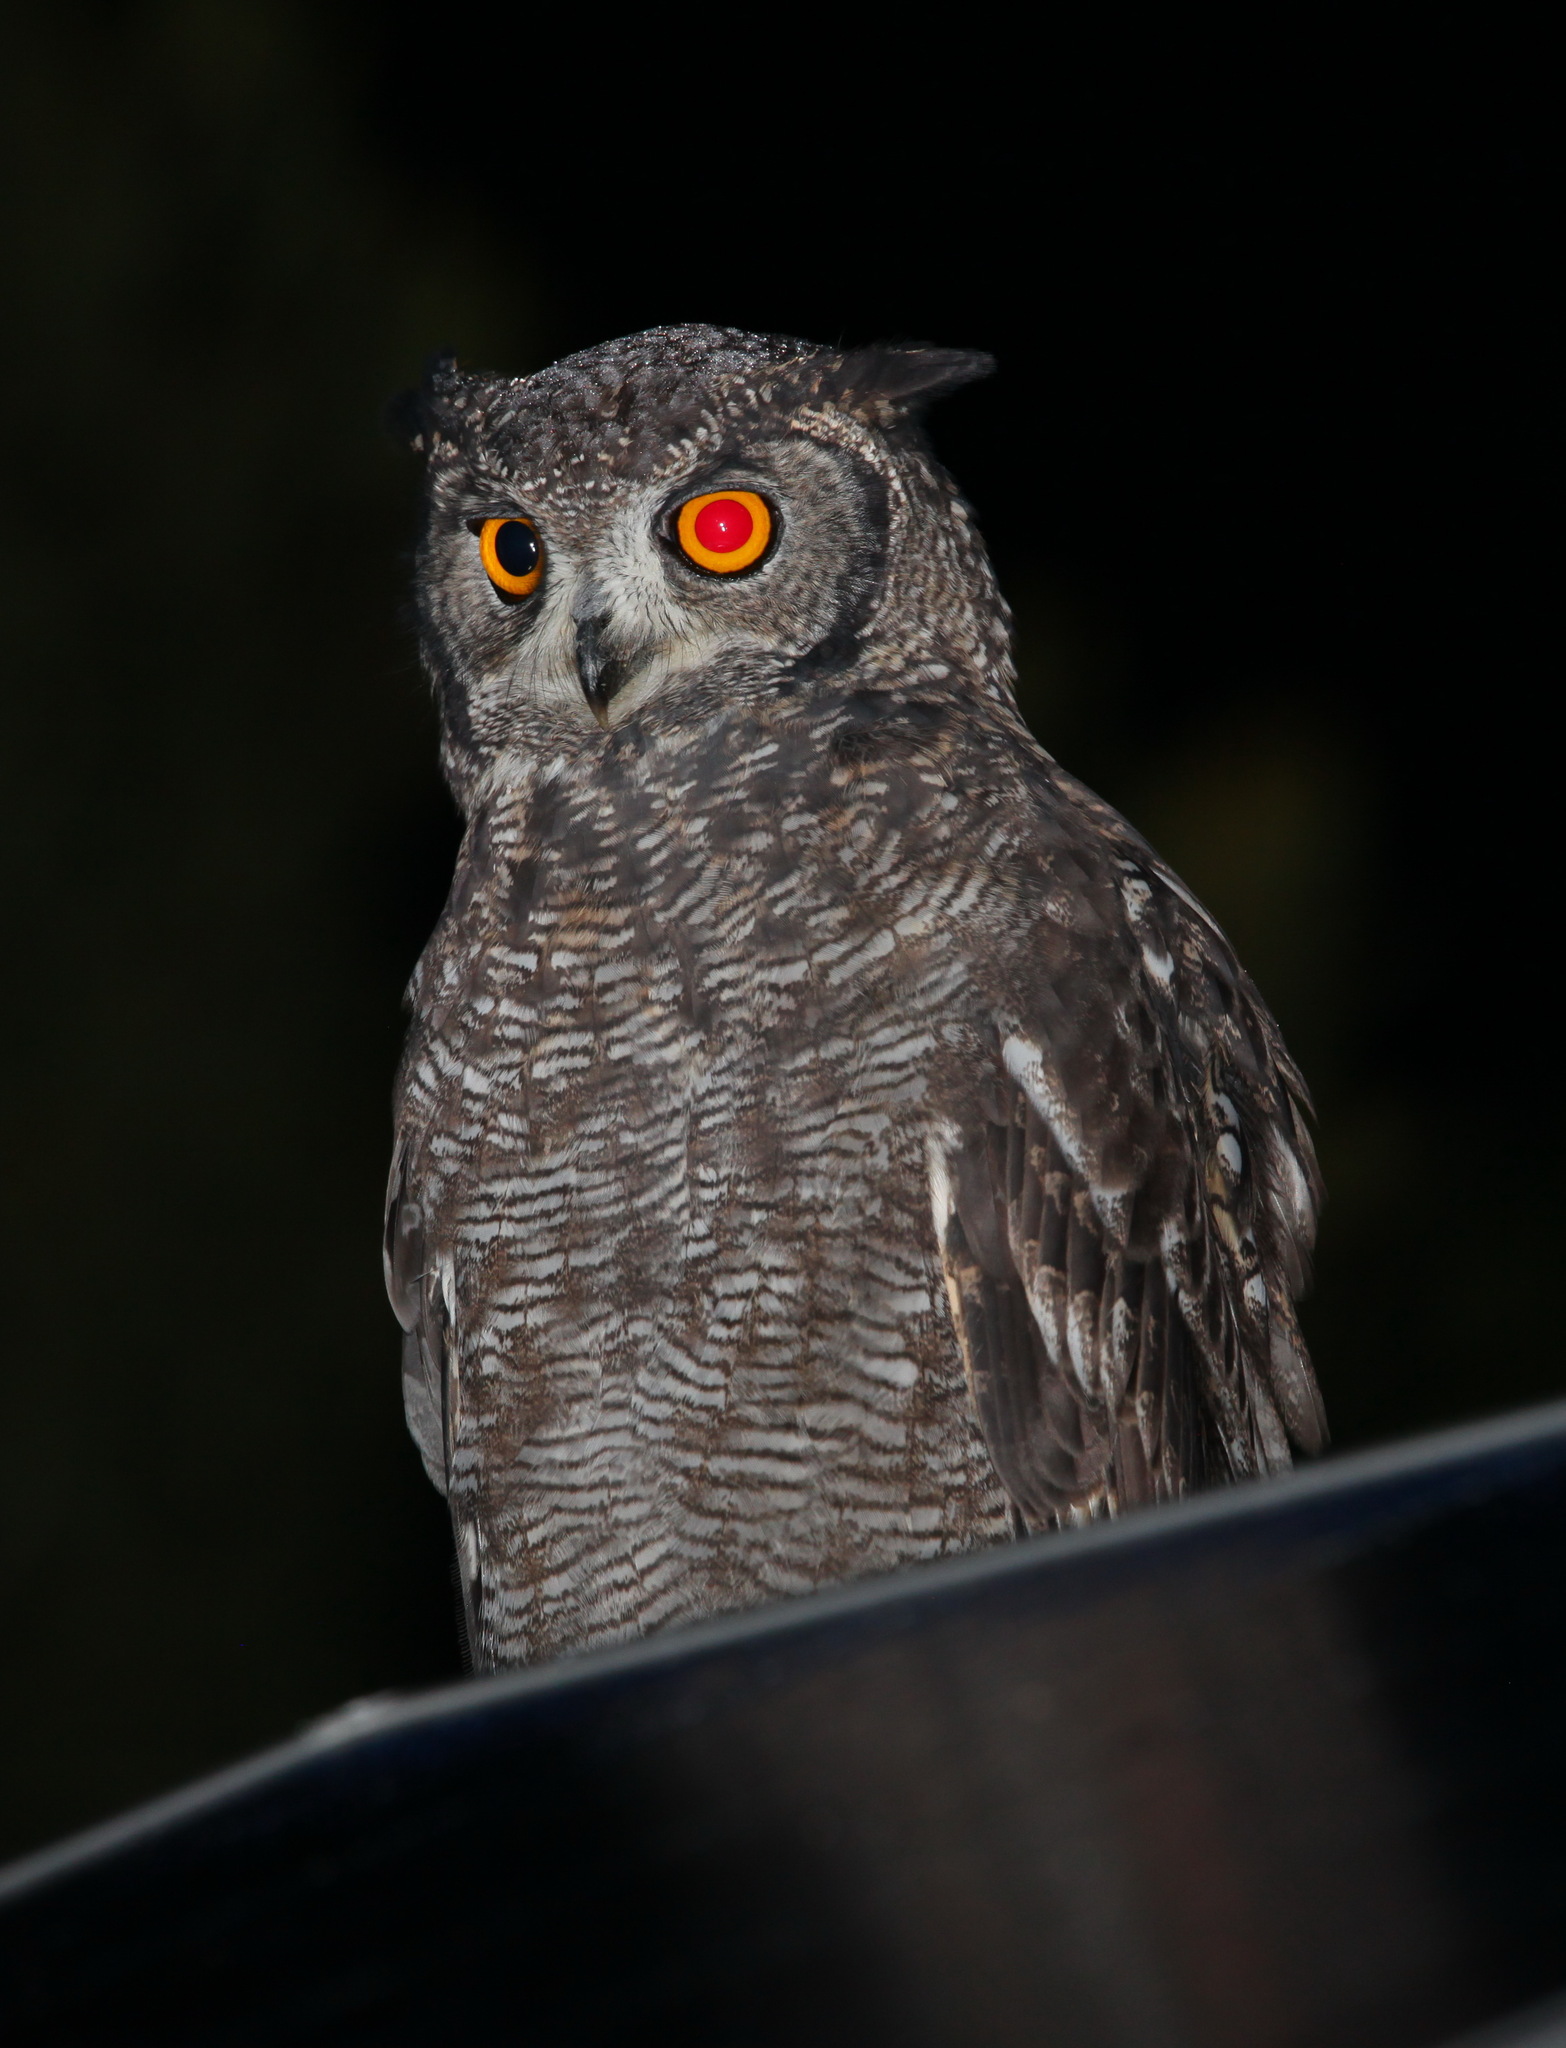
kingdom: Animalia
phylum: Chordata
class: Aves
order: Strigiformes
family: Strigidae
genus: Bubo
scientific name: Bubo africanus
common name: Spotted eagle-owl
